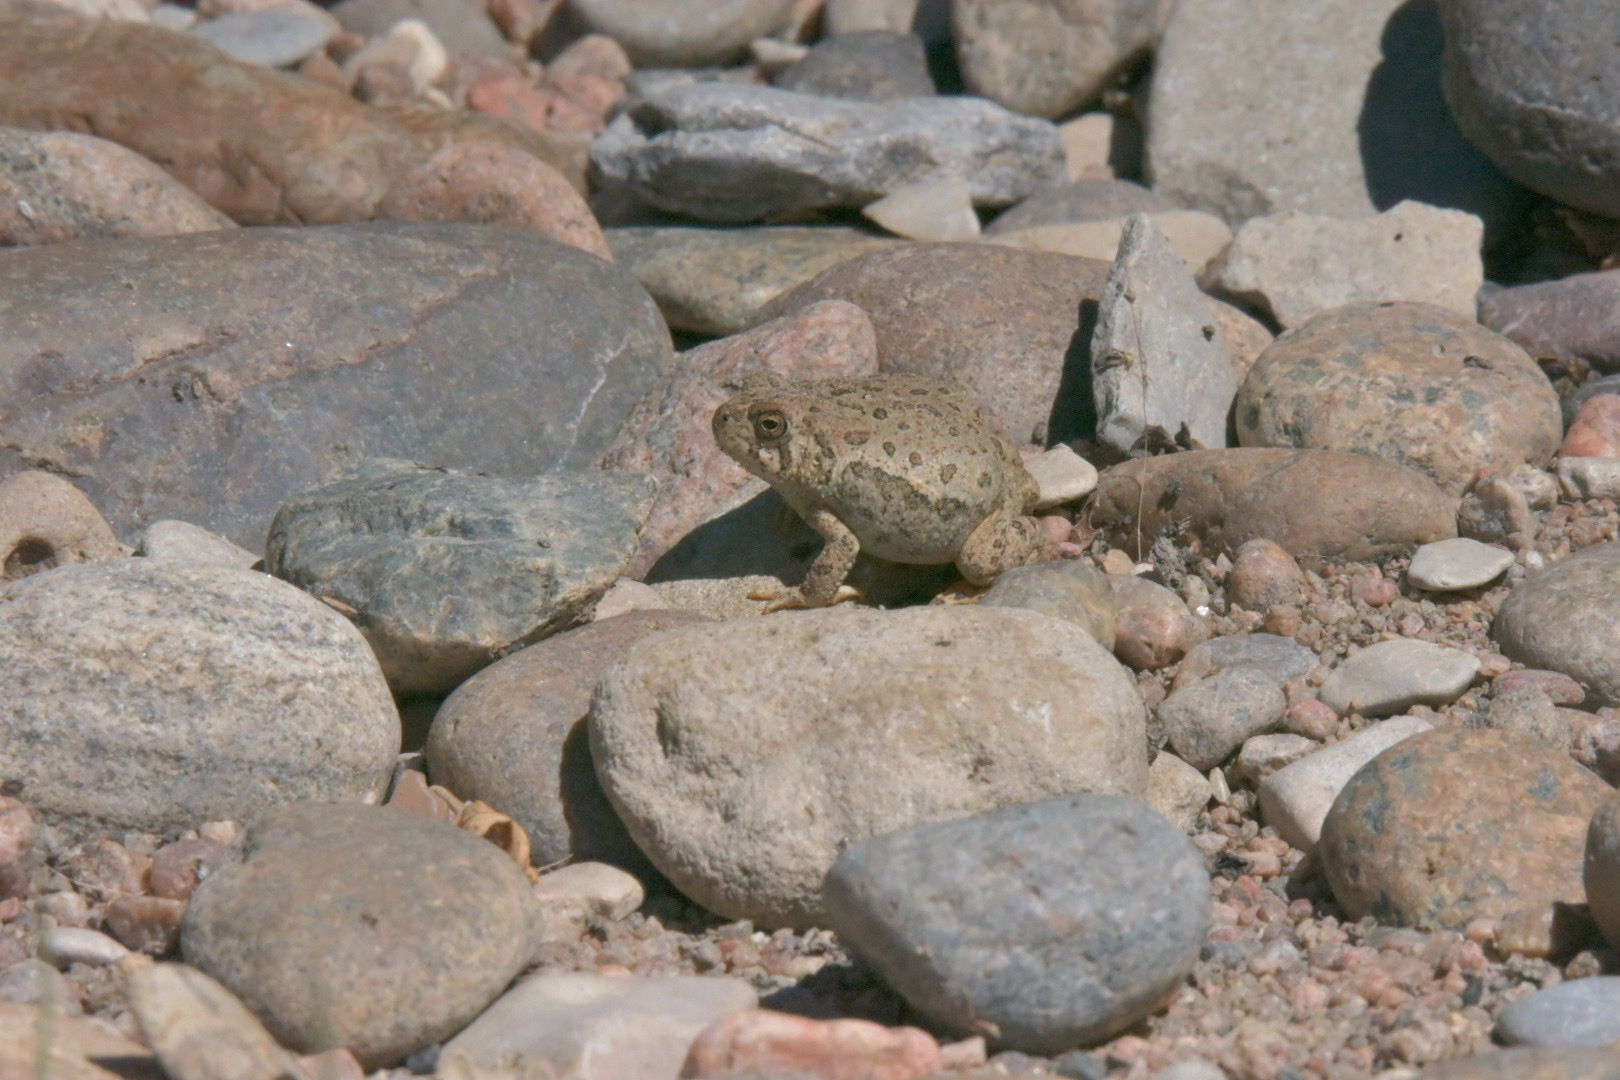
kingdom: Animalia
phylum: Chordata
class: Amphibia
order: Anura
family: Bufonidae
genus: Anaxyrus
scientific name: Anaxyrus woodhousii
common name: Woodhouse's toad
